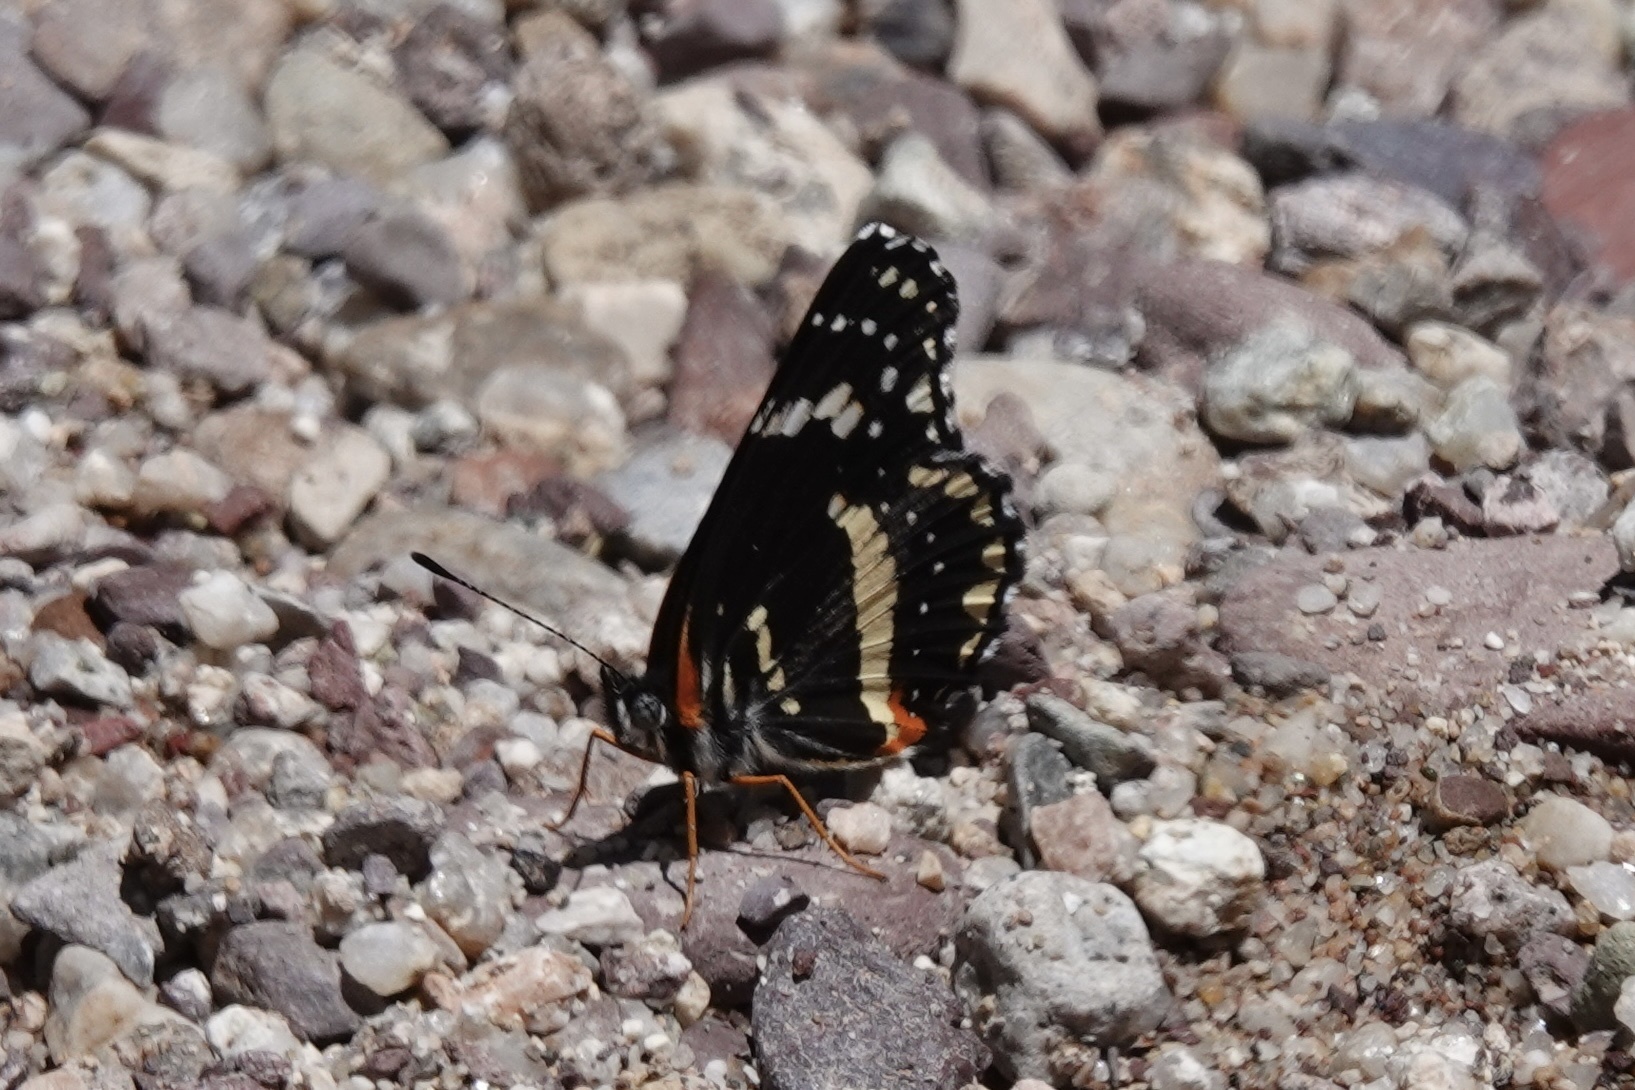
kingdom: Animalia
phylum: Arthropoda
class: Insecta
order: Lepidoptera
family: Nymphalidae
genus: Chlosyne
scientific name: Chlosyne lacinia
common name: Bordered patch
